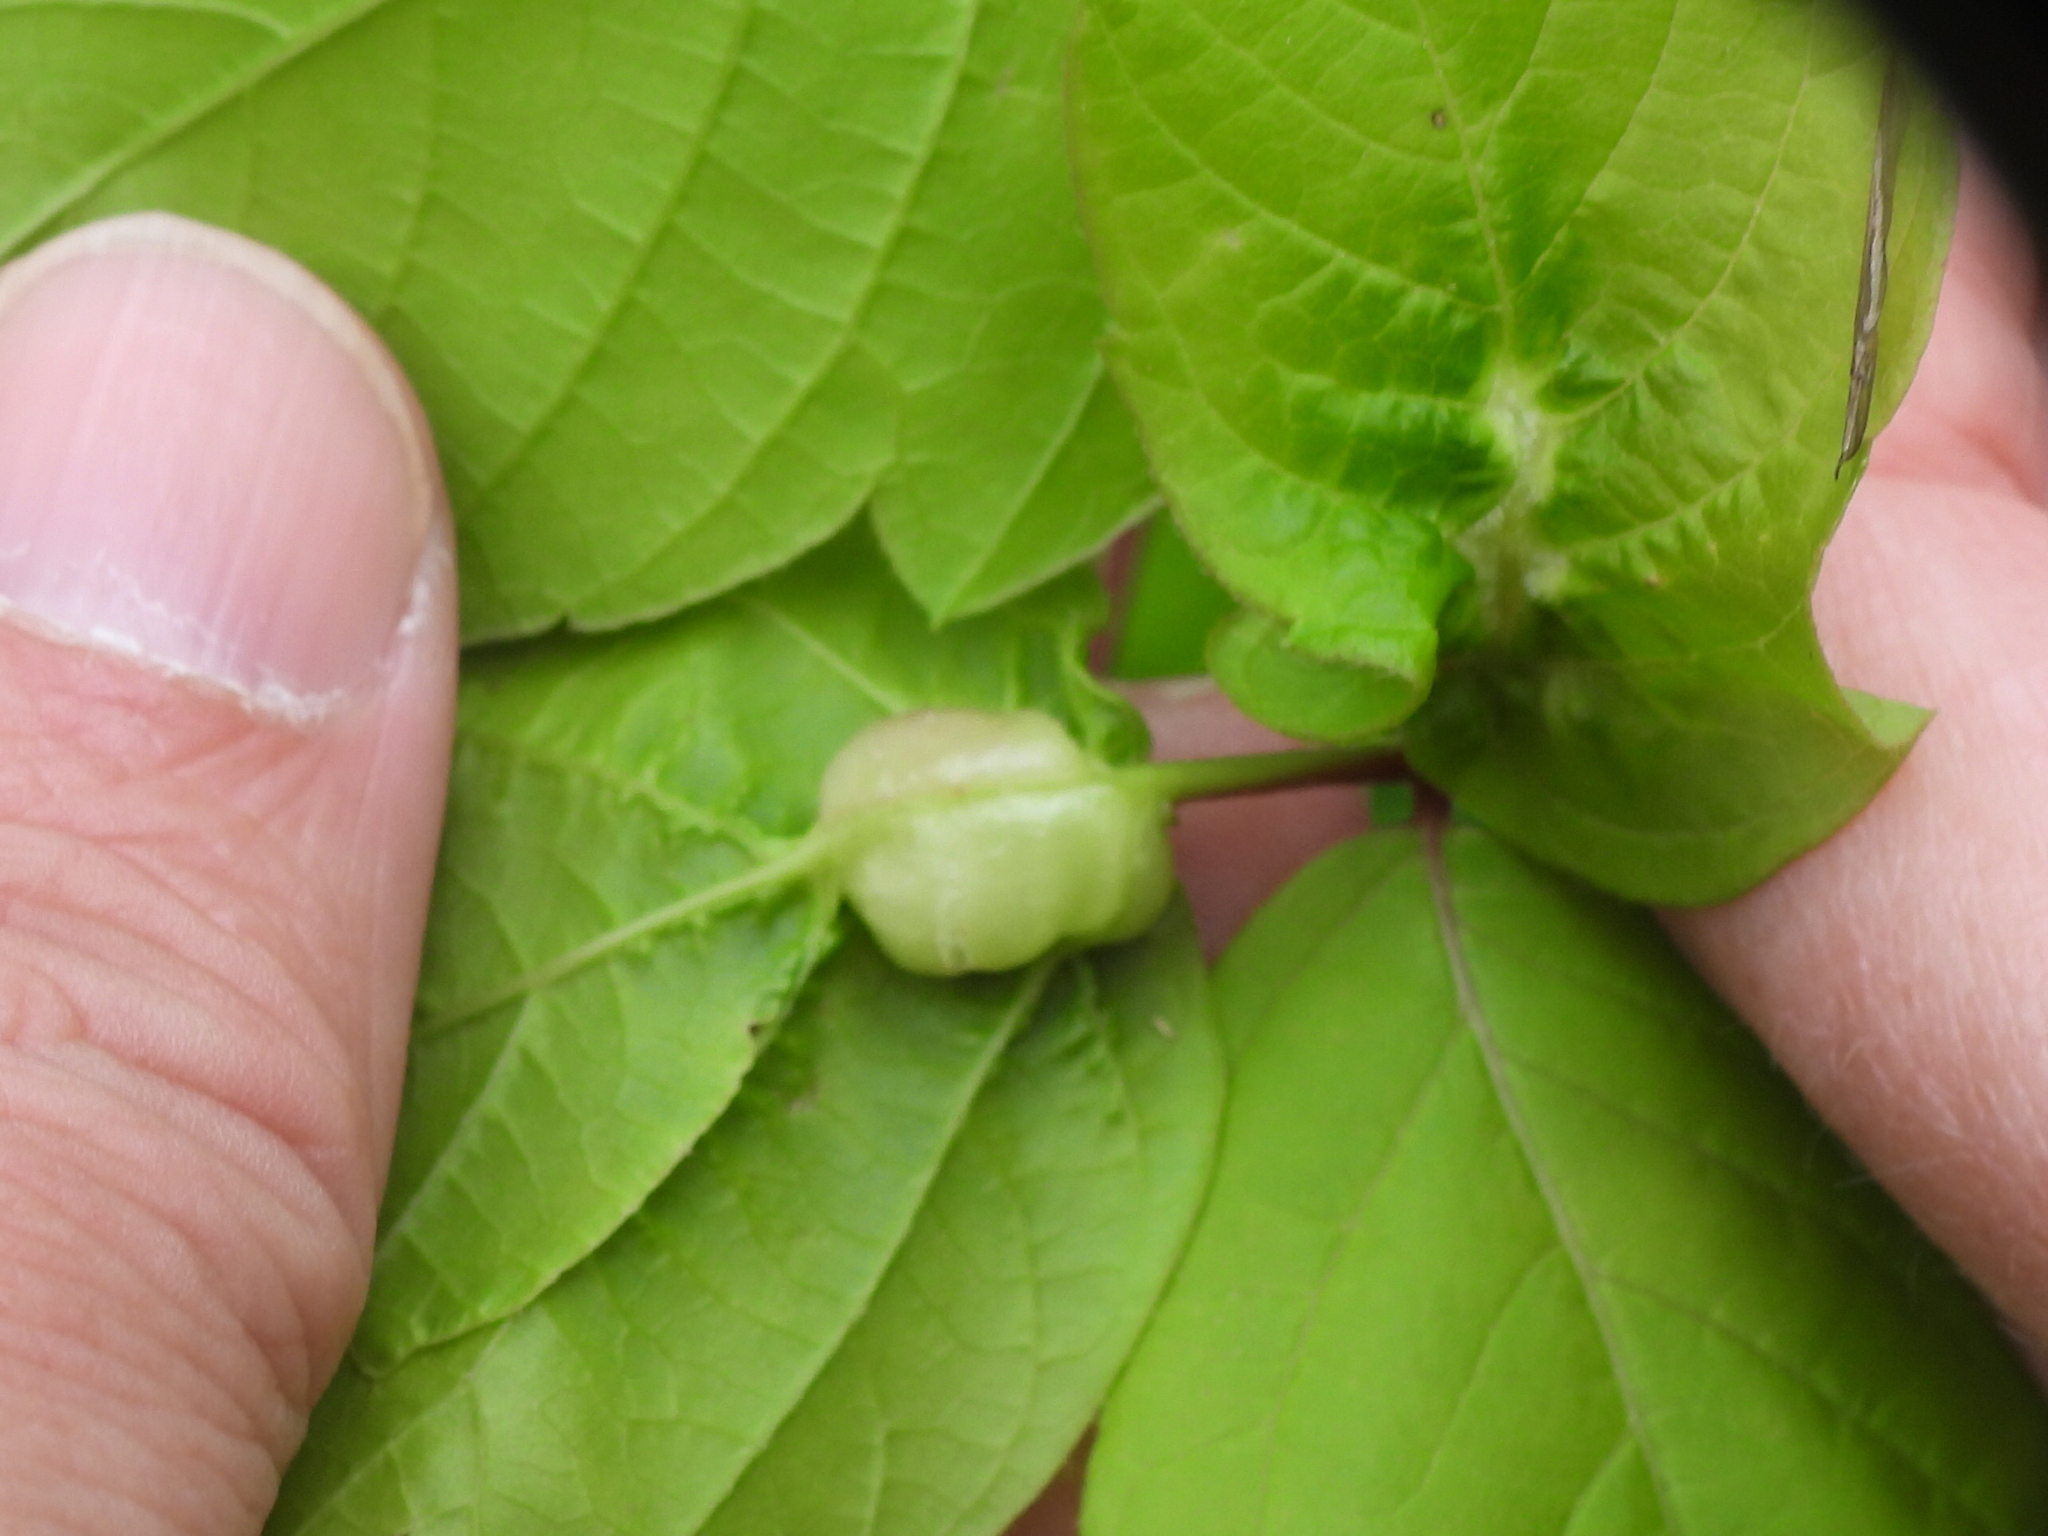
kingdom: Animalia
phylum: Arthropoda
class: Insecta
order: Diptera
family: Cecidomyiidae
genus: Contarinia
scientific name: Contarinia negundinis
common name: Boxelder budgall midge
